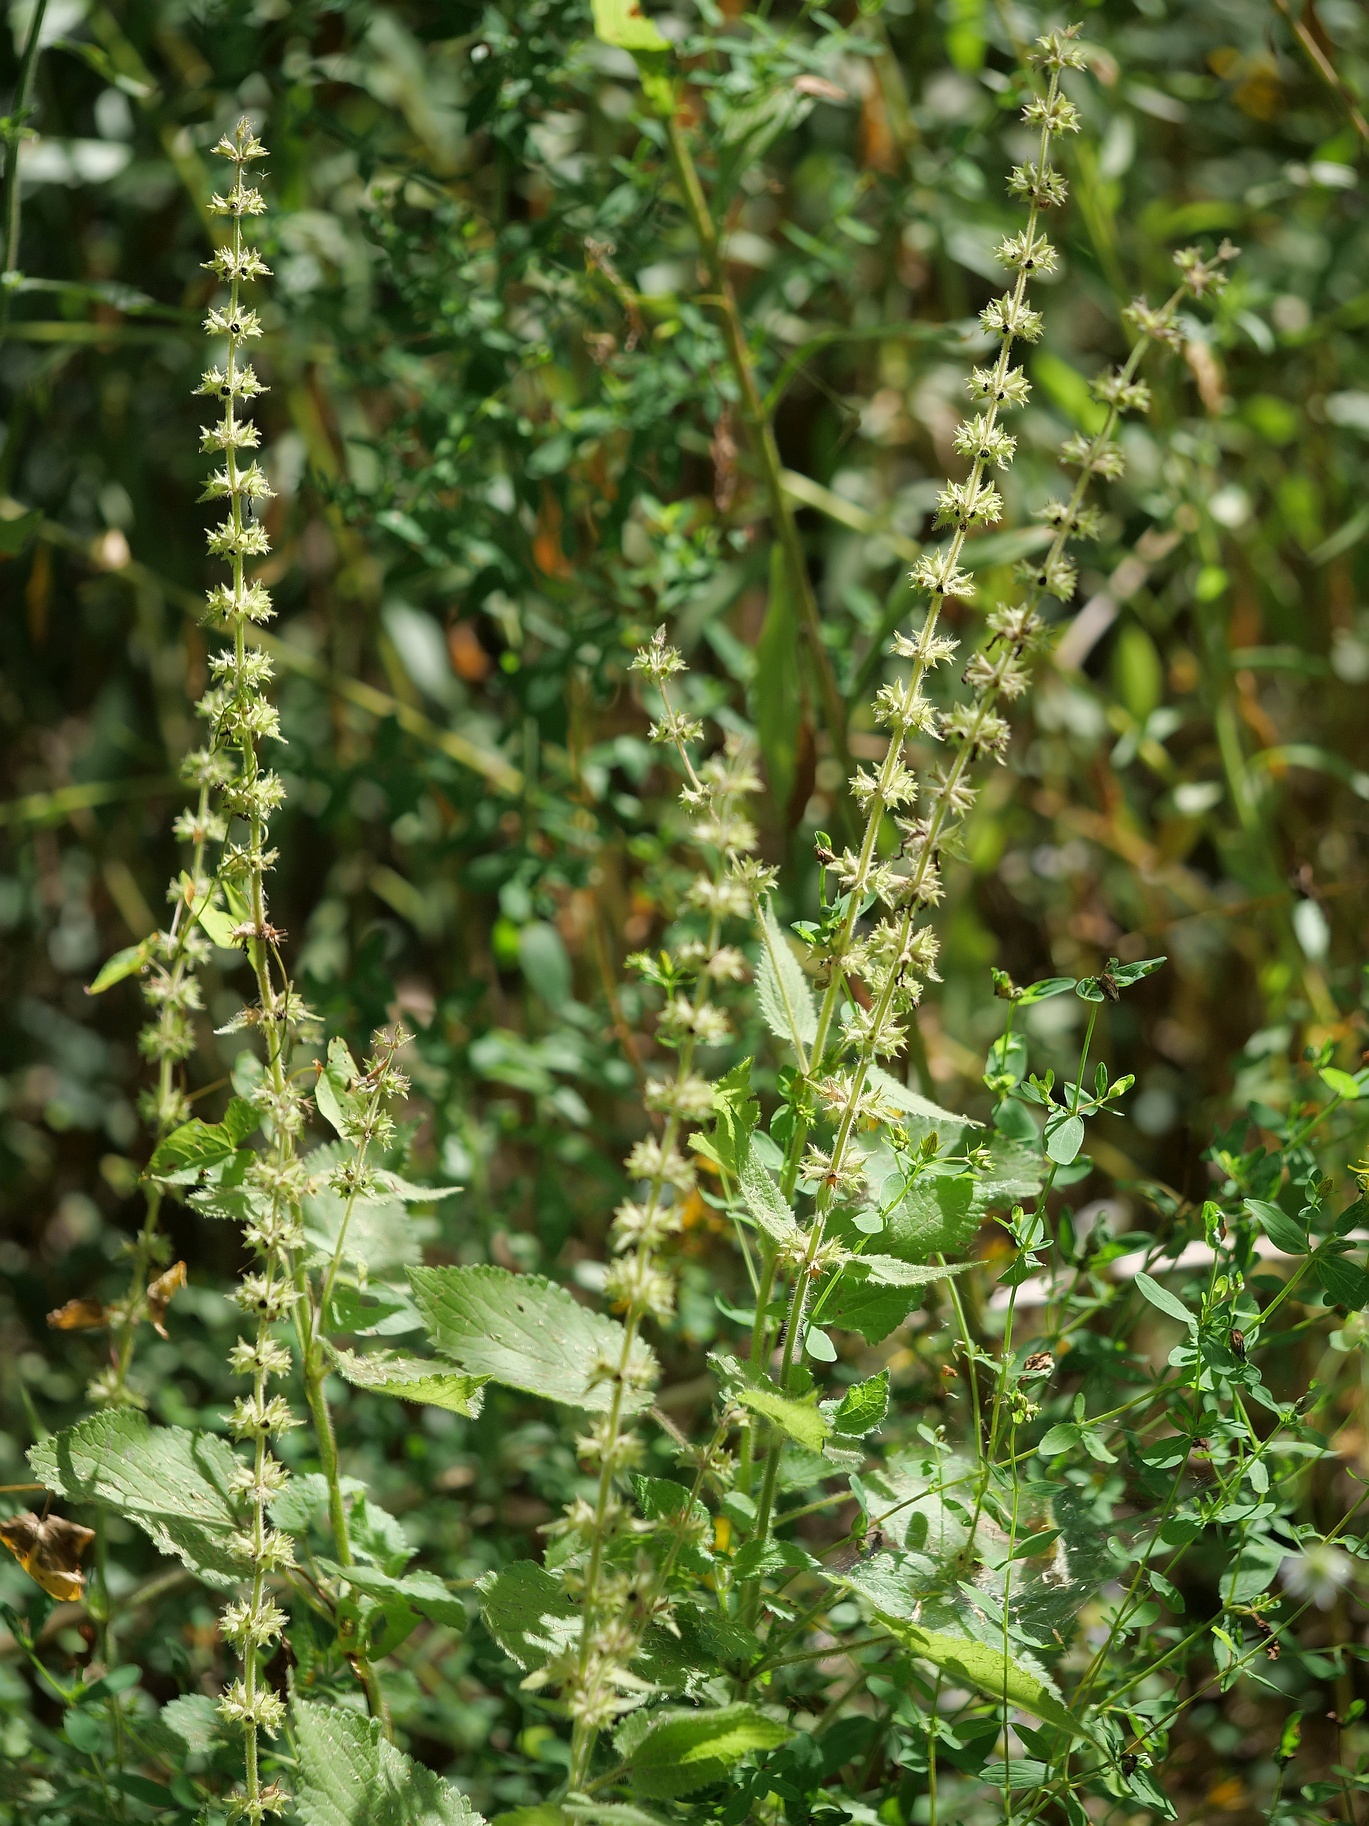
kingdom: Plantae
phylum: Tracheophyta
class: Magnoliopsida
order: Lamiales
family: Lamiaceae
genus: Stachys
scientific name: Stachys sylvatica
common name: Hedge woundwort
